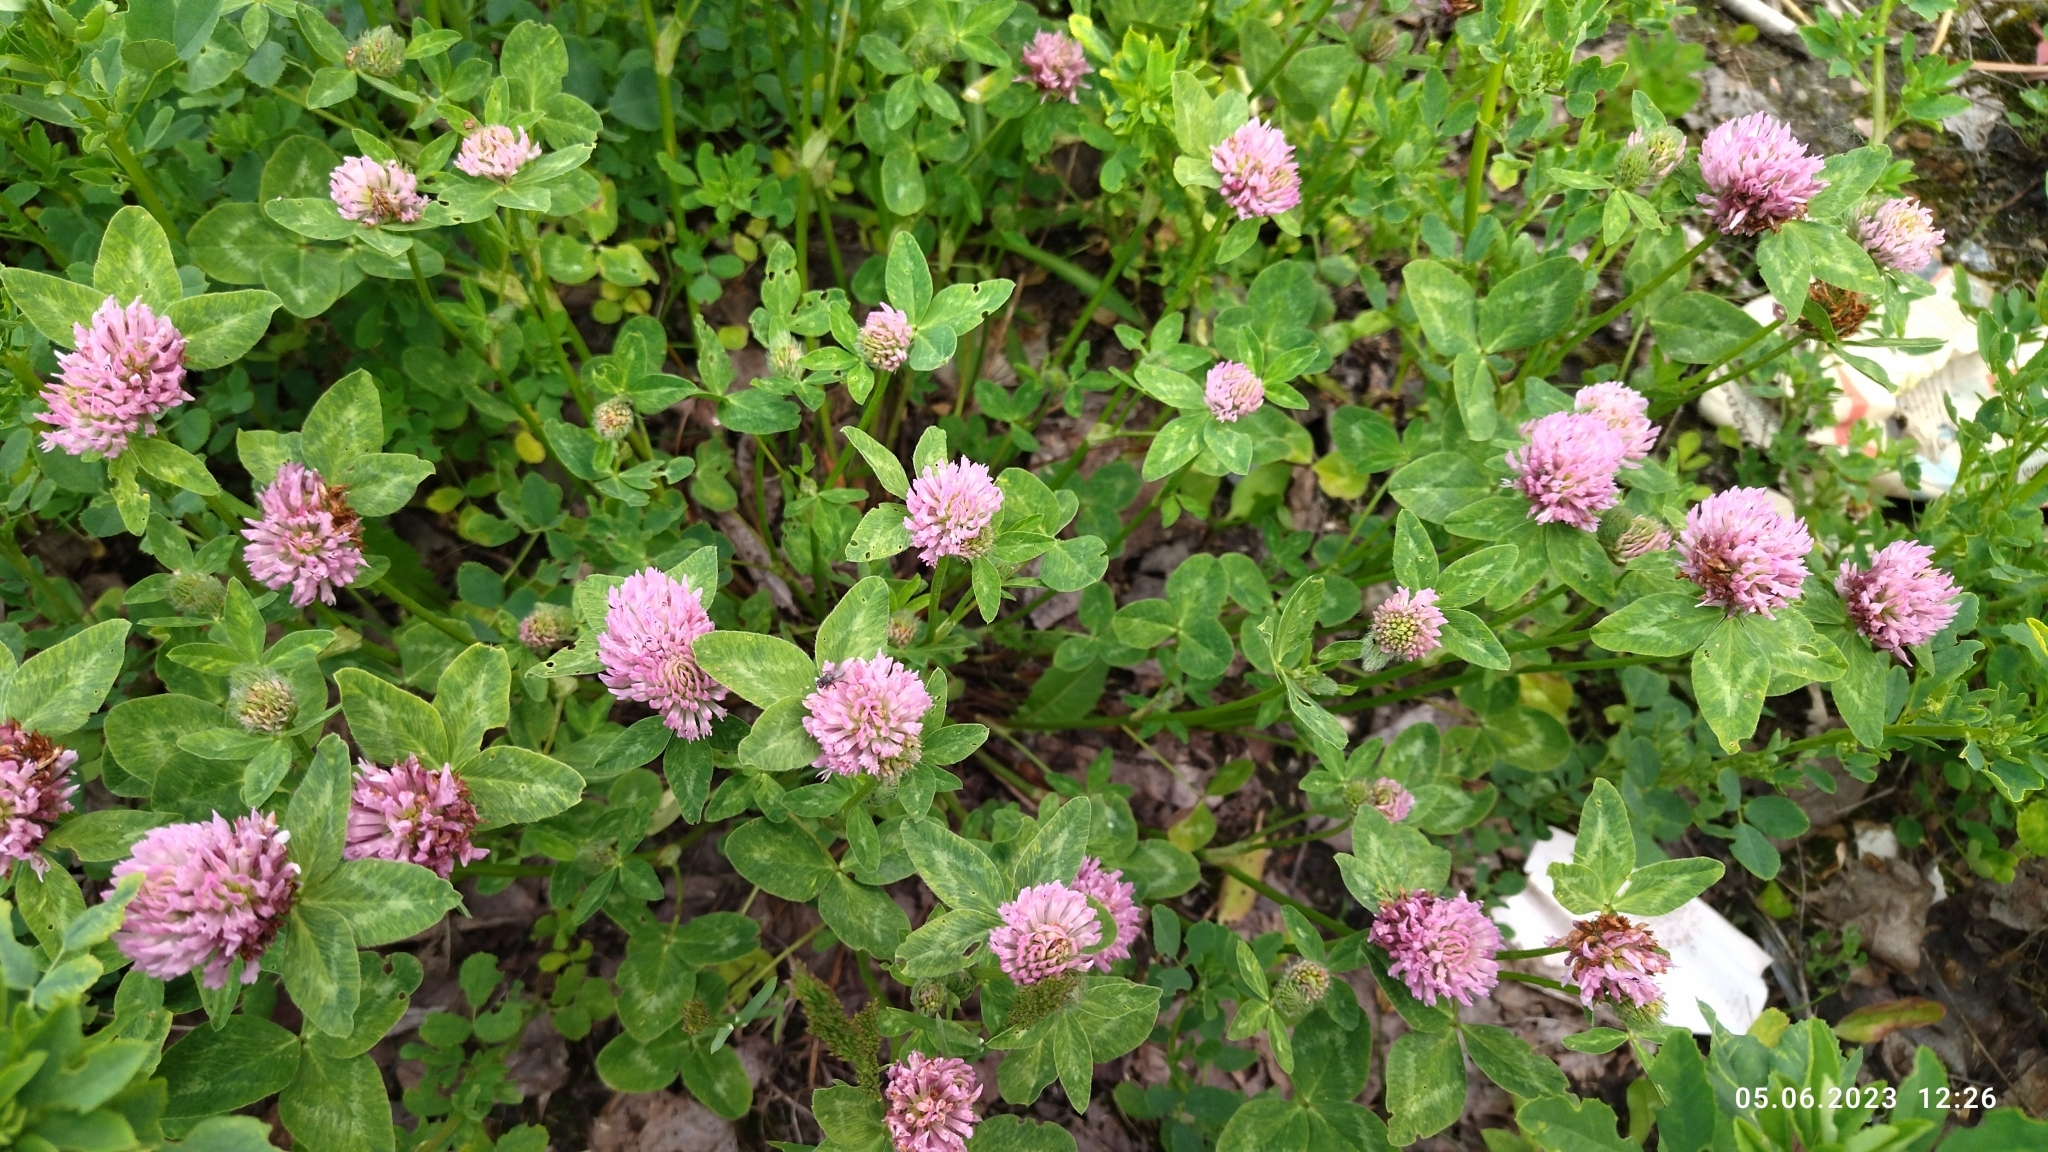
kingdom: Plantae
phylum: Tracheophyta
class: Magnoliopsida
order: Fabales
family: Fabaceae
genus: Trifolium
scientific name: Trifolium pratense
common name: Red clover
